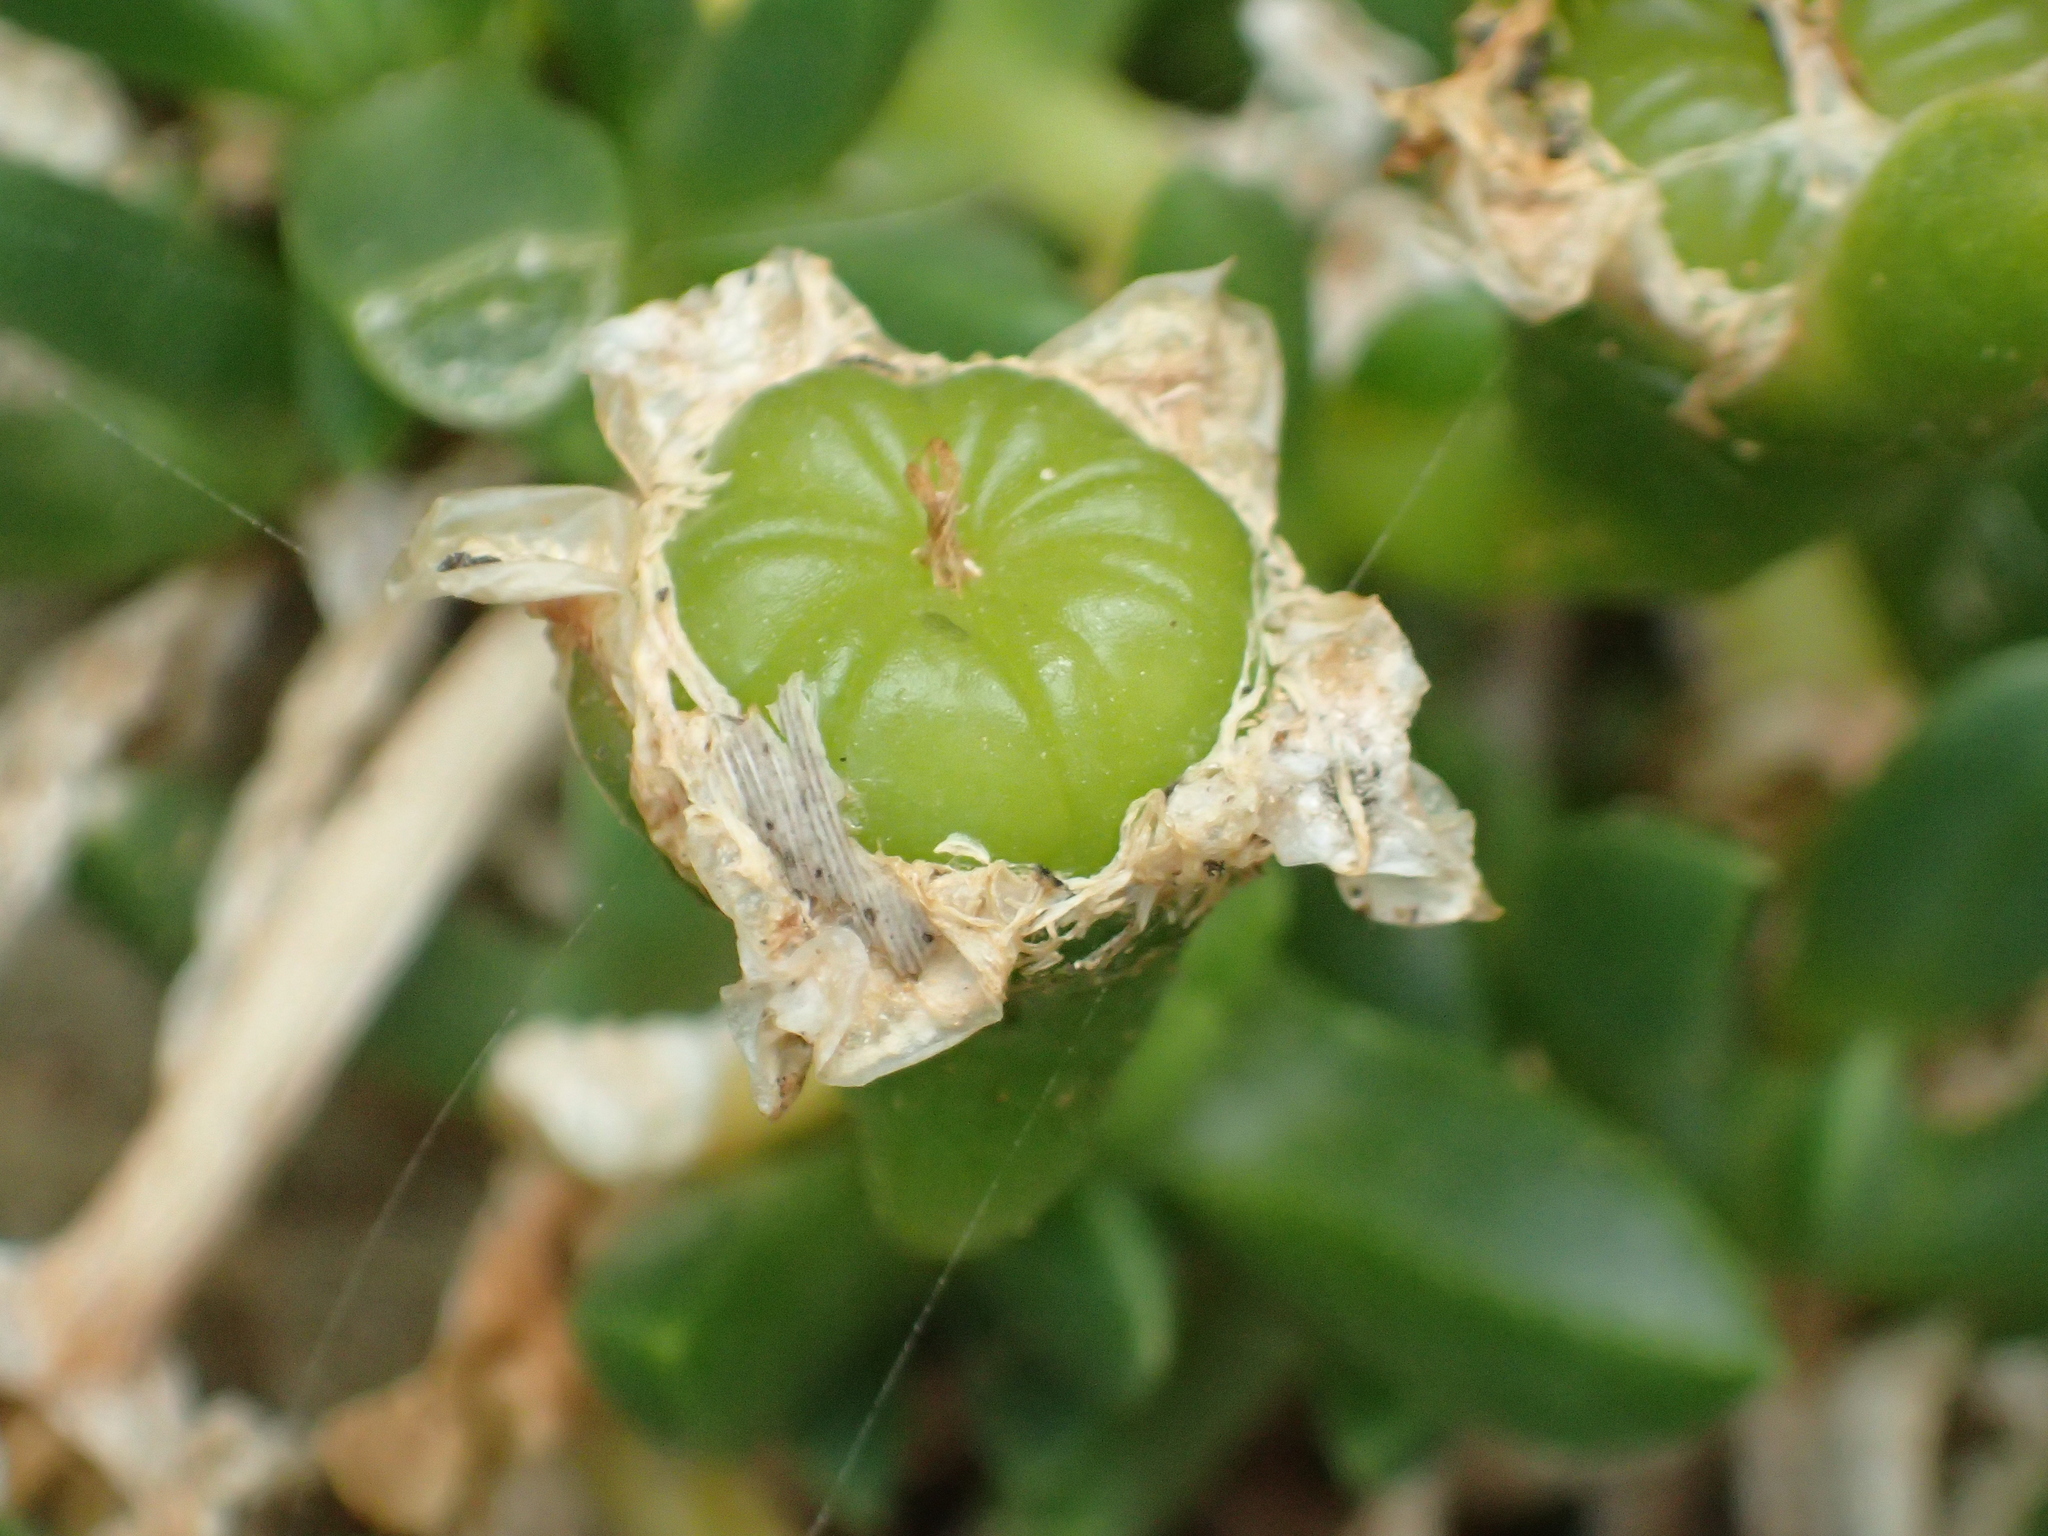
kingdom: Plantae
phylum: Tracheophyta
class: Magnoliopsida
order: Caryophyllales
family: Aizoaceae
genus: Disphyma
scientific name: Disphyma australe
